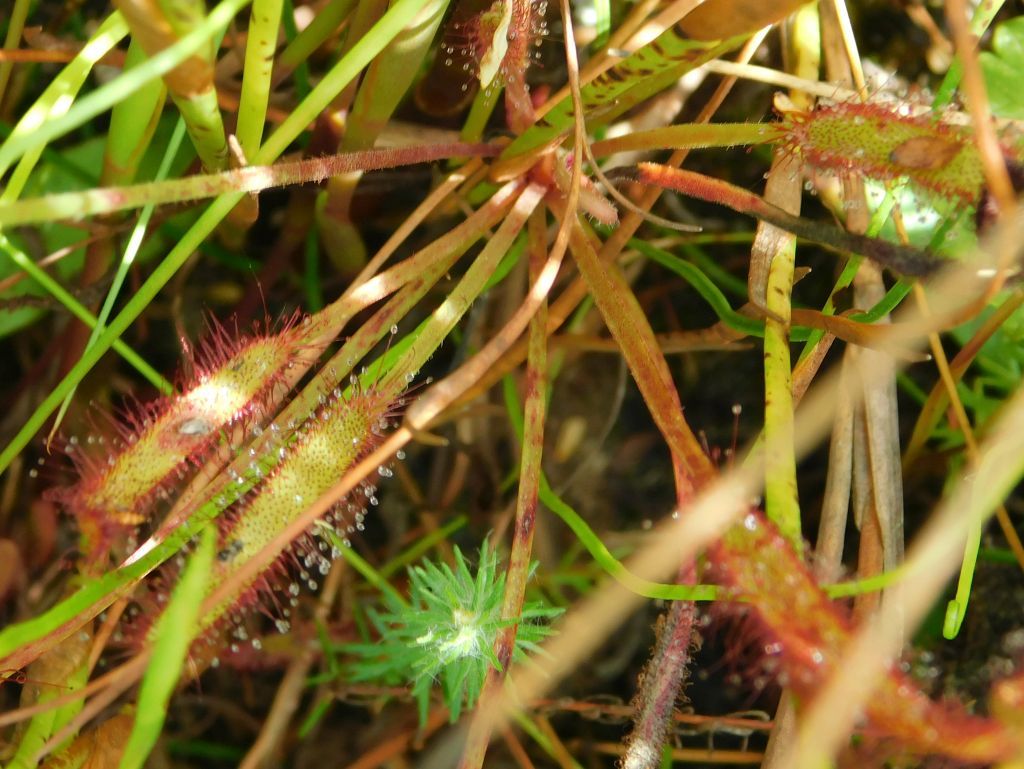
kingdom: Plantae
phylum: Tracheophyta
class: Magnoliopsida
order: Caryophyllales
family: Droseraceae
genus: Drosera
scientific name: Drosera capensis
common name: Cape sundew
